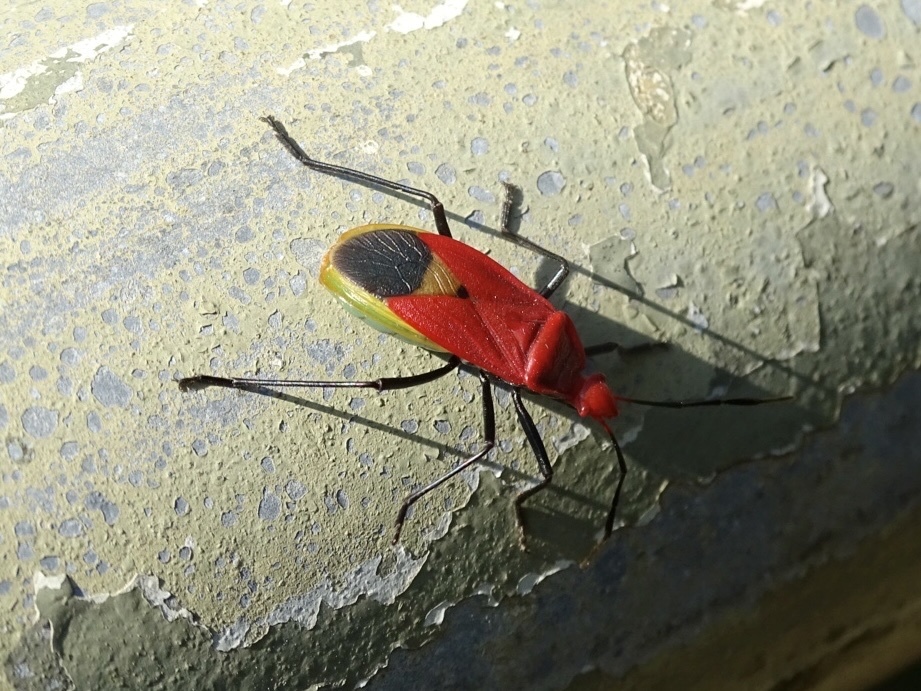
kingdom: Animalia
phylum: Arthropoda
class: Insecta
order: Hemiptera
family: Pyrrhocoridae
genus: Dindymus
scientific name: Dindymus
